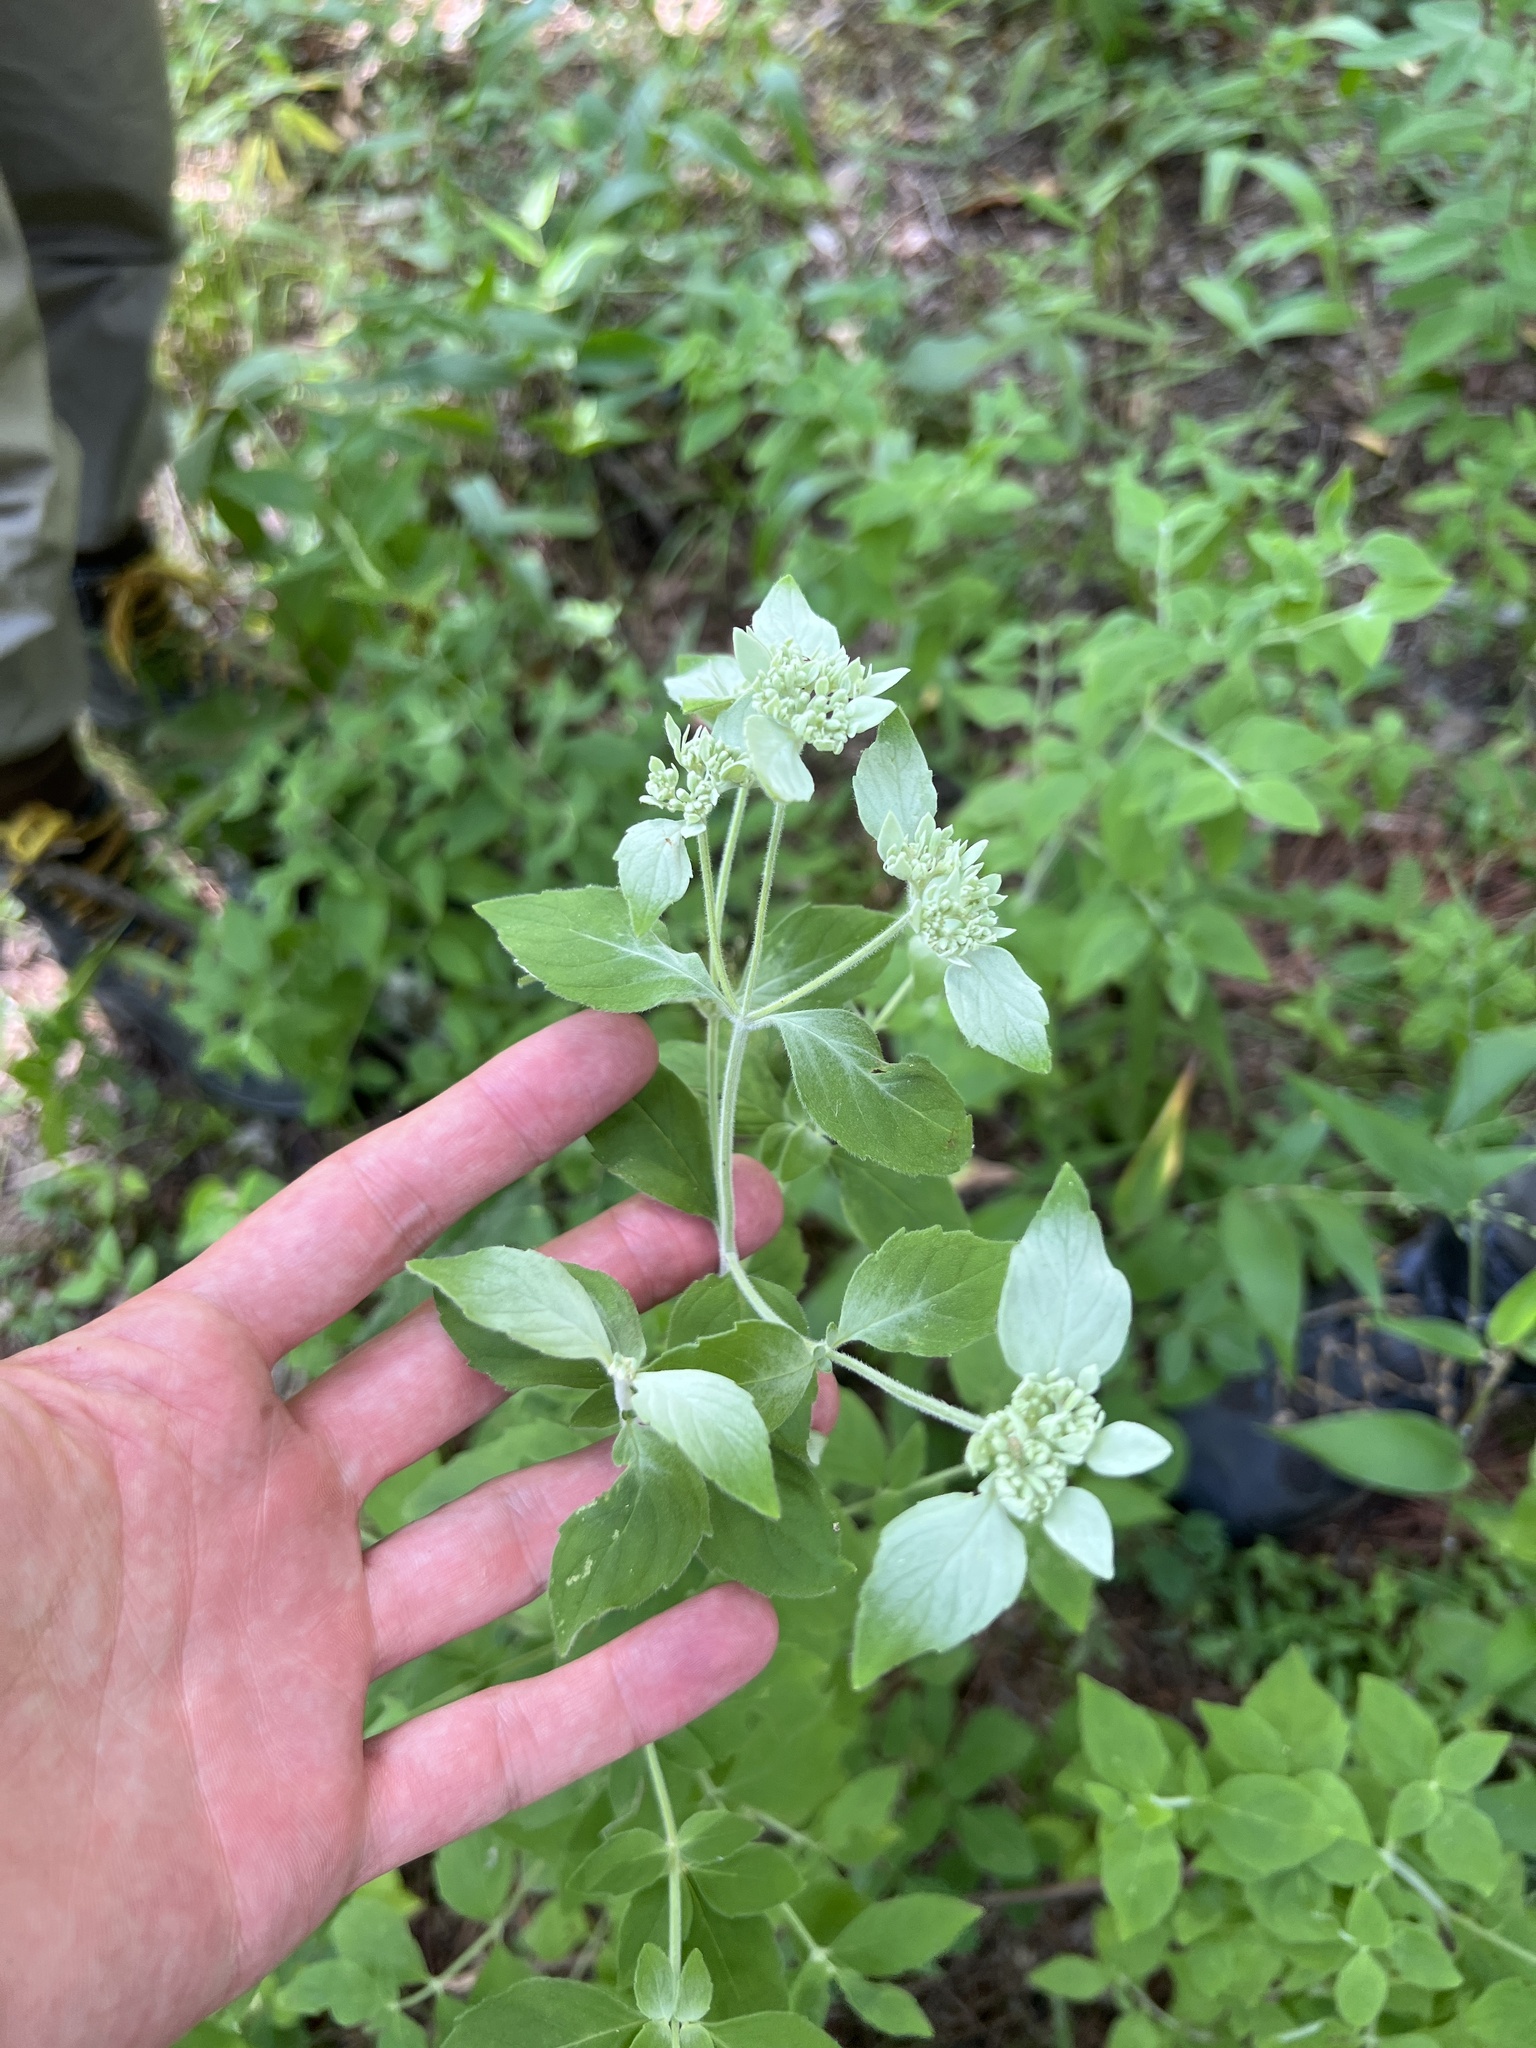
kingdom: Plantae
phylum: Tracheophyta
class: Magnoliopsida
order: Lamiales
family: Lamiaceae
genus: Pycnanthemum
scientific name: Pycnanthemum albescens
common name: White-leaf mountain-mint
